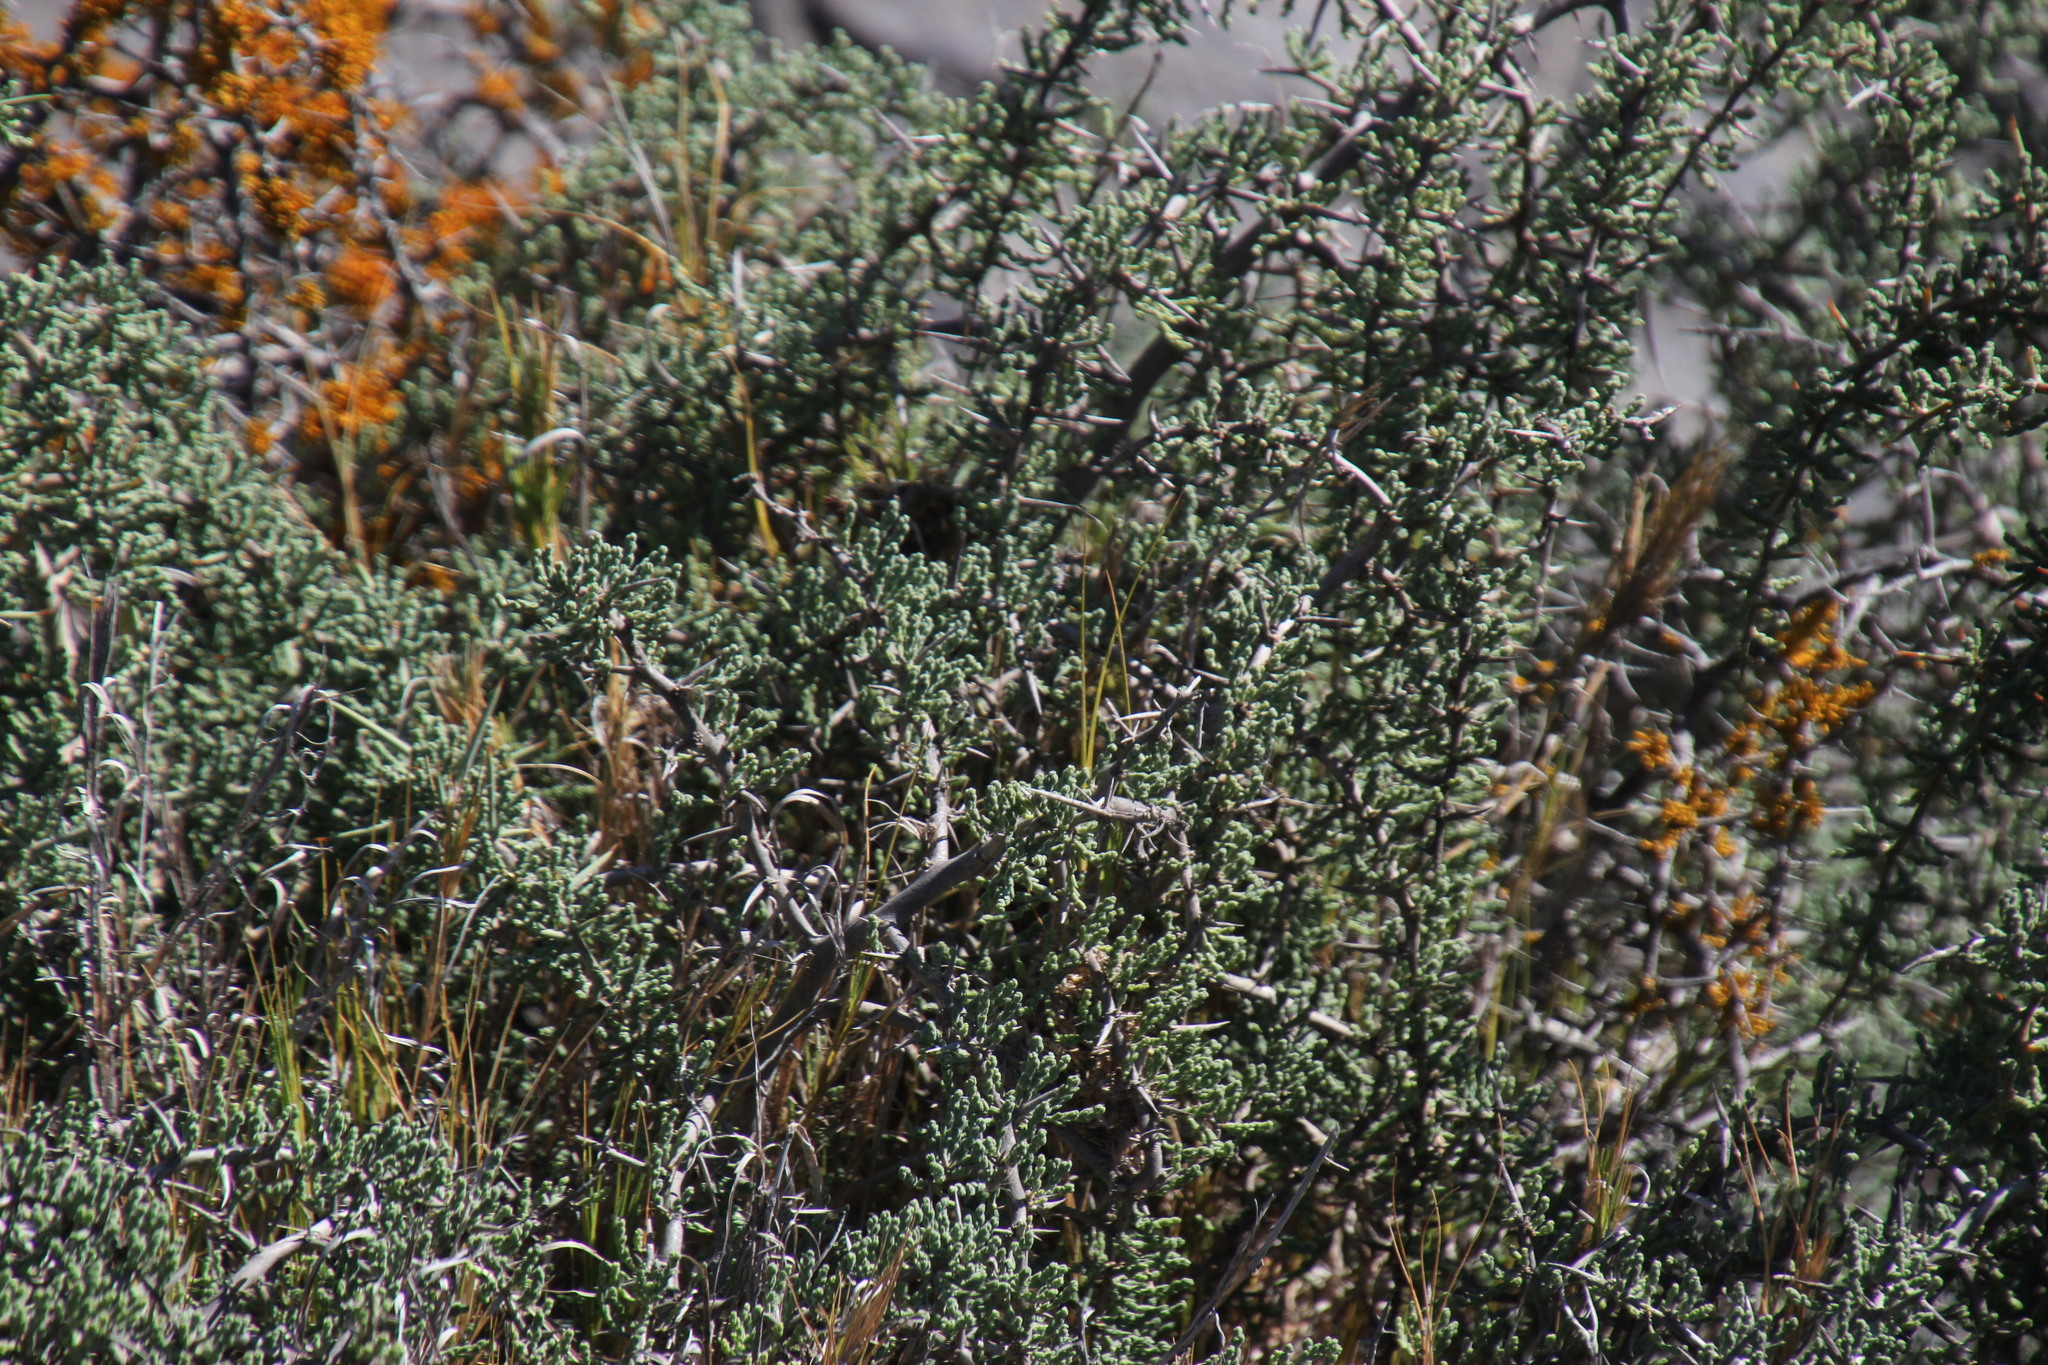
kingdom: Plantae
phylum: Tracheophyta
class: Liliopsida
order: Asparagales
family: Asparagaceae
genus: Asparagus
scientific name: Asparagus capensis
